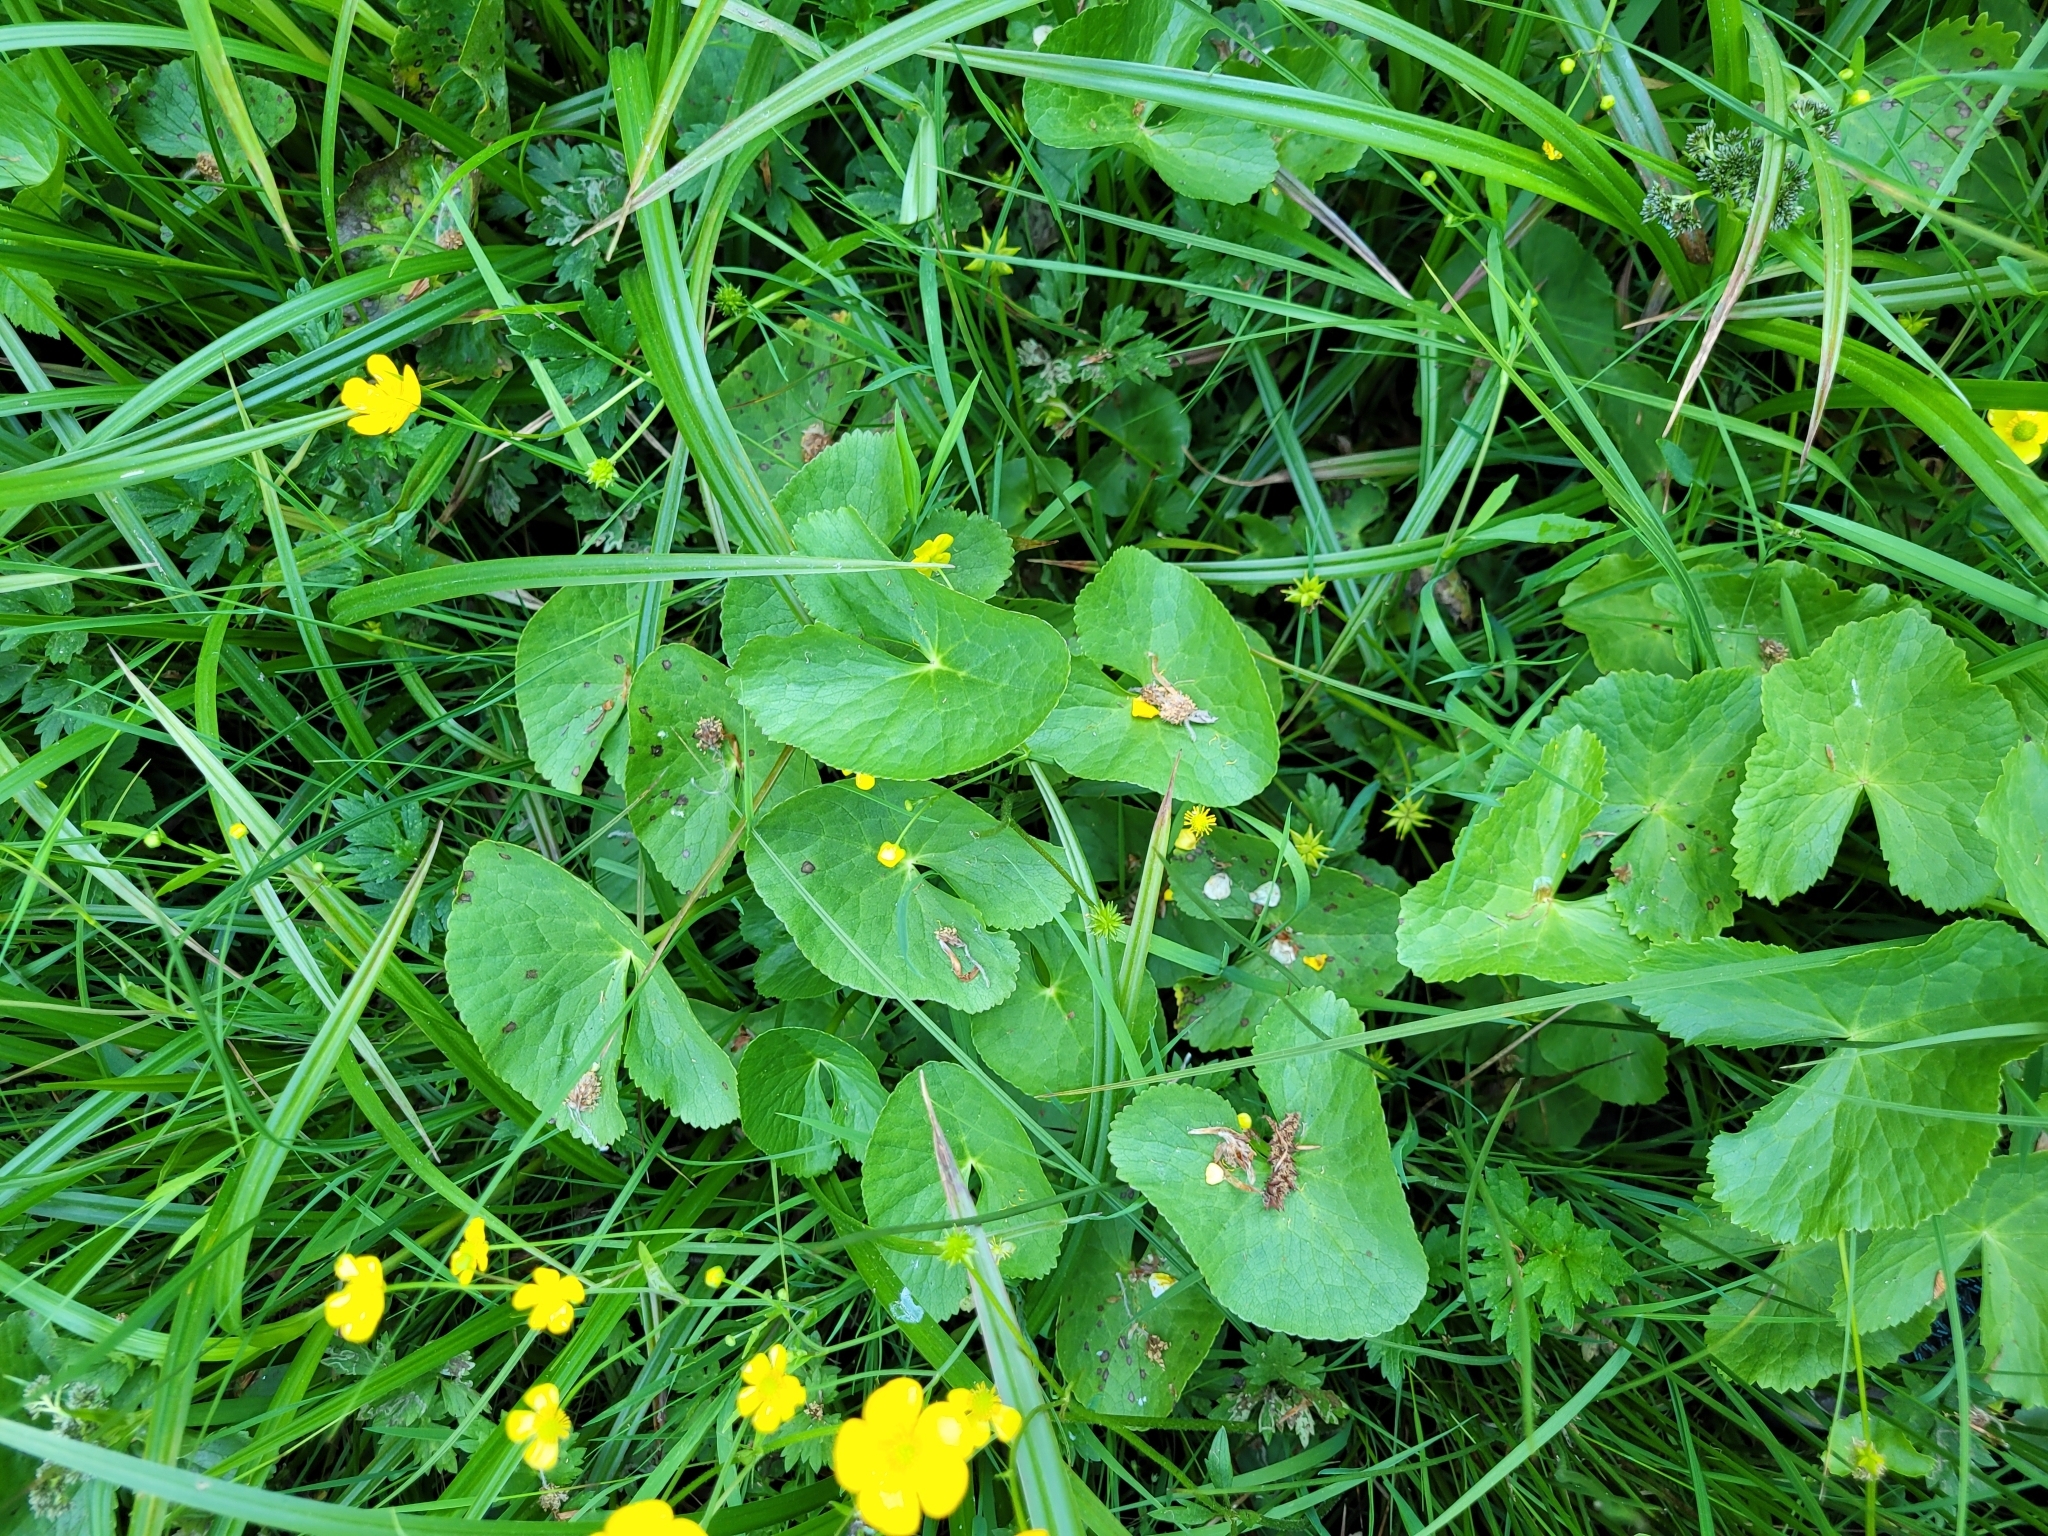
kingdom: Plantae
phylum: Tracheophyta
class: Magnoliopsida
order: Ranunculales
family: Ranunculaceae
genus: Caltha
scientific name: Caltha palustris
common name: Marsh marigold
